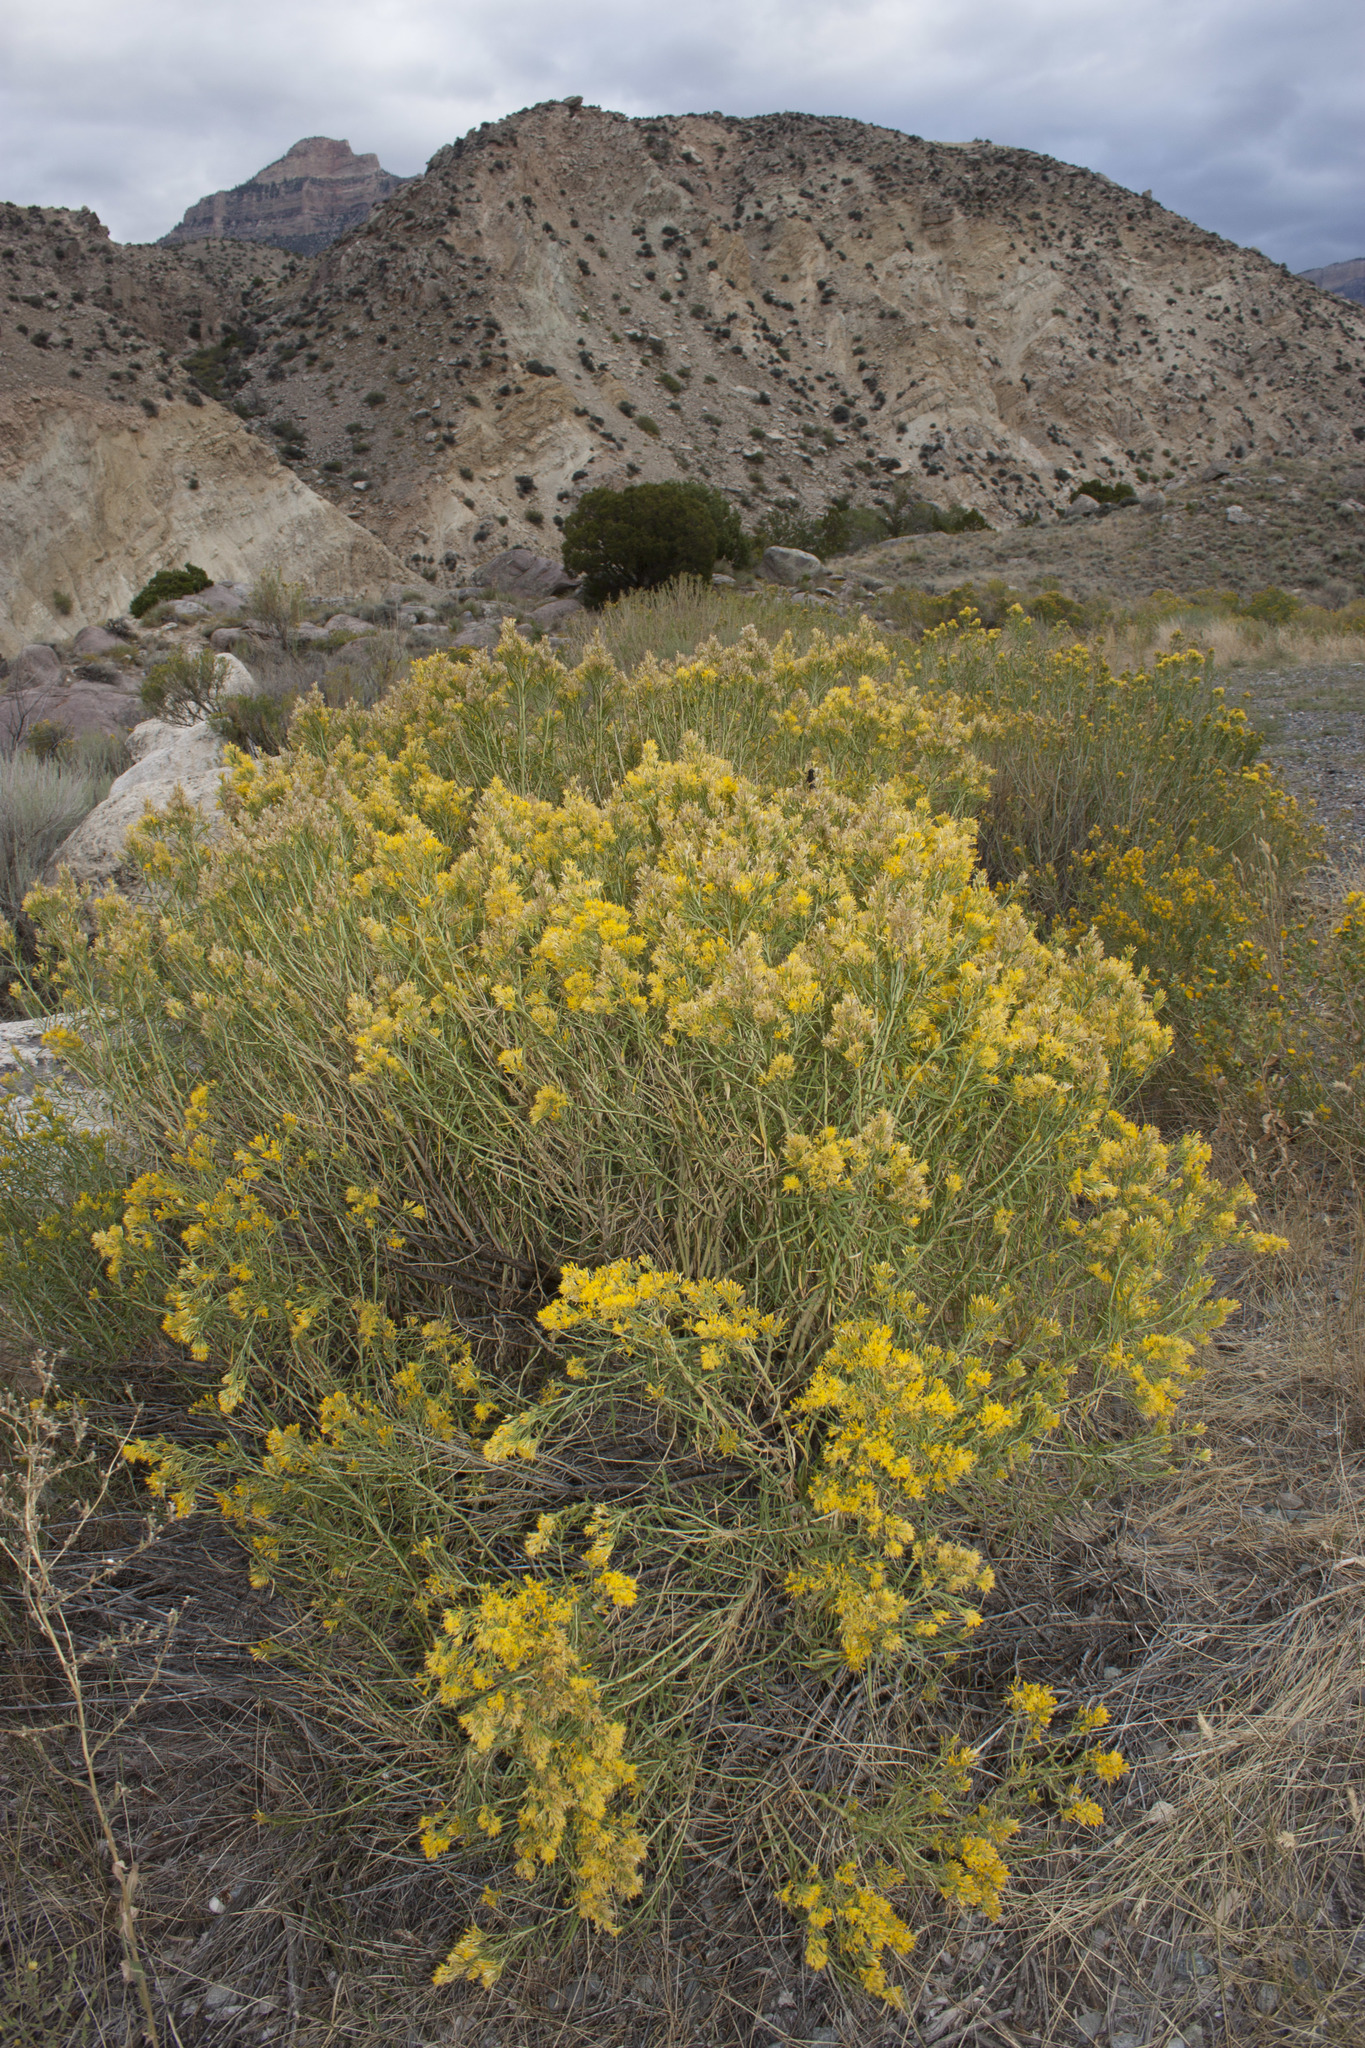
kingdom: Plantae
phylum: Tracheophyta
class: Magnoliopsida
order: Asterales
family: Asteraceae
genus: Ericameria
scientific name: Ericameria nauseosa
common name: Rubber rabbitbrush
